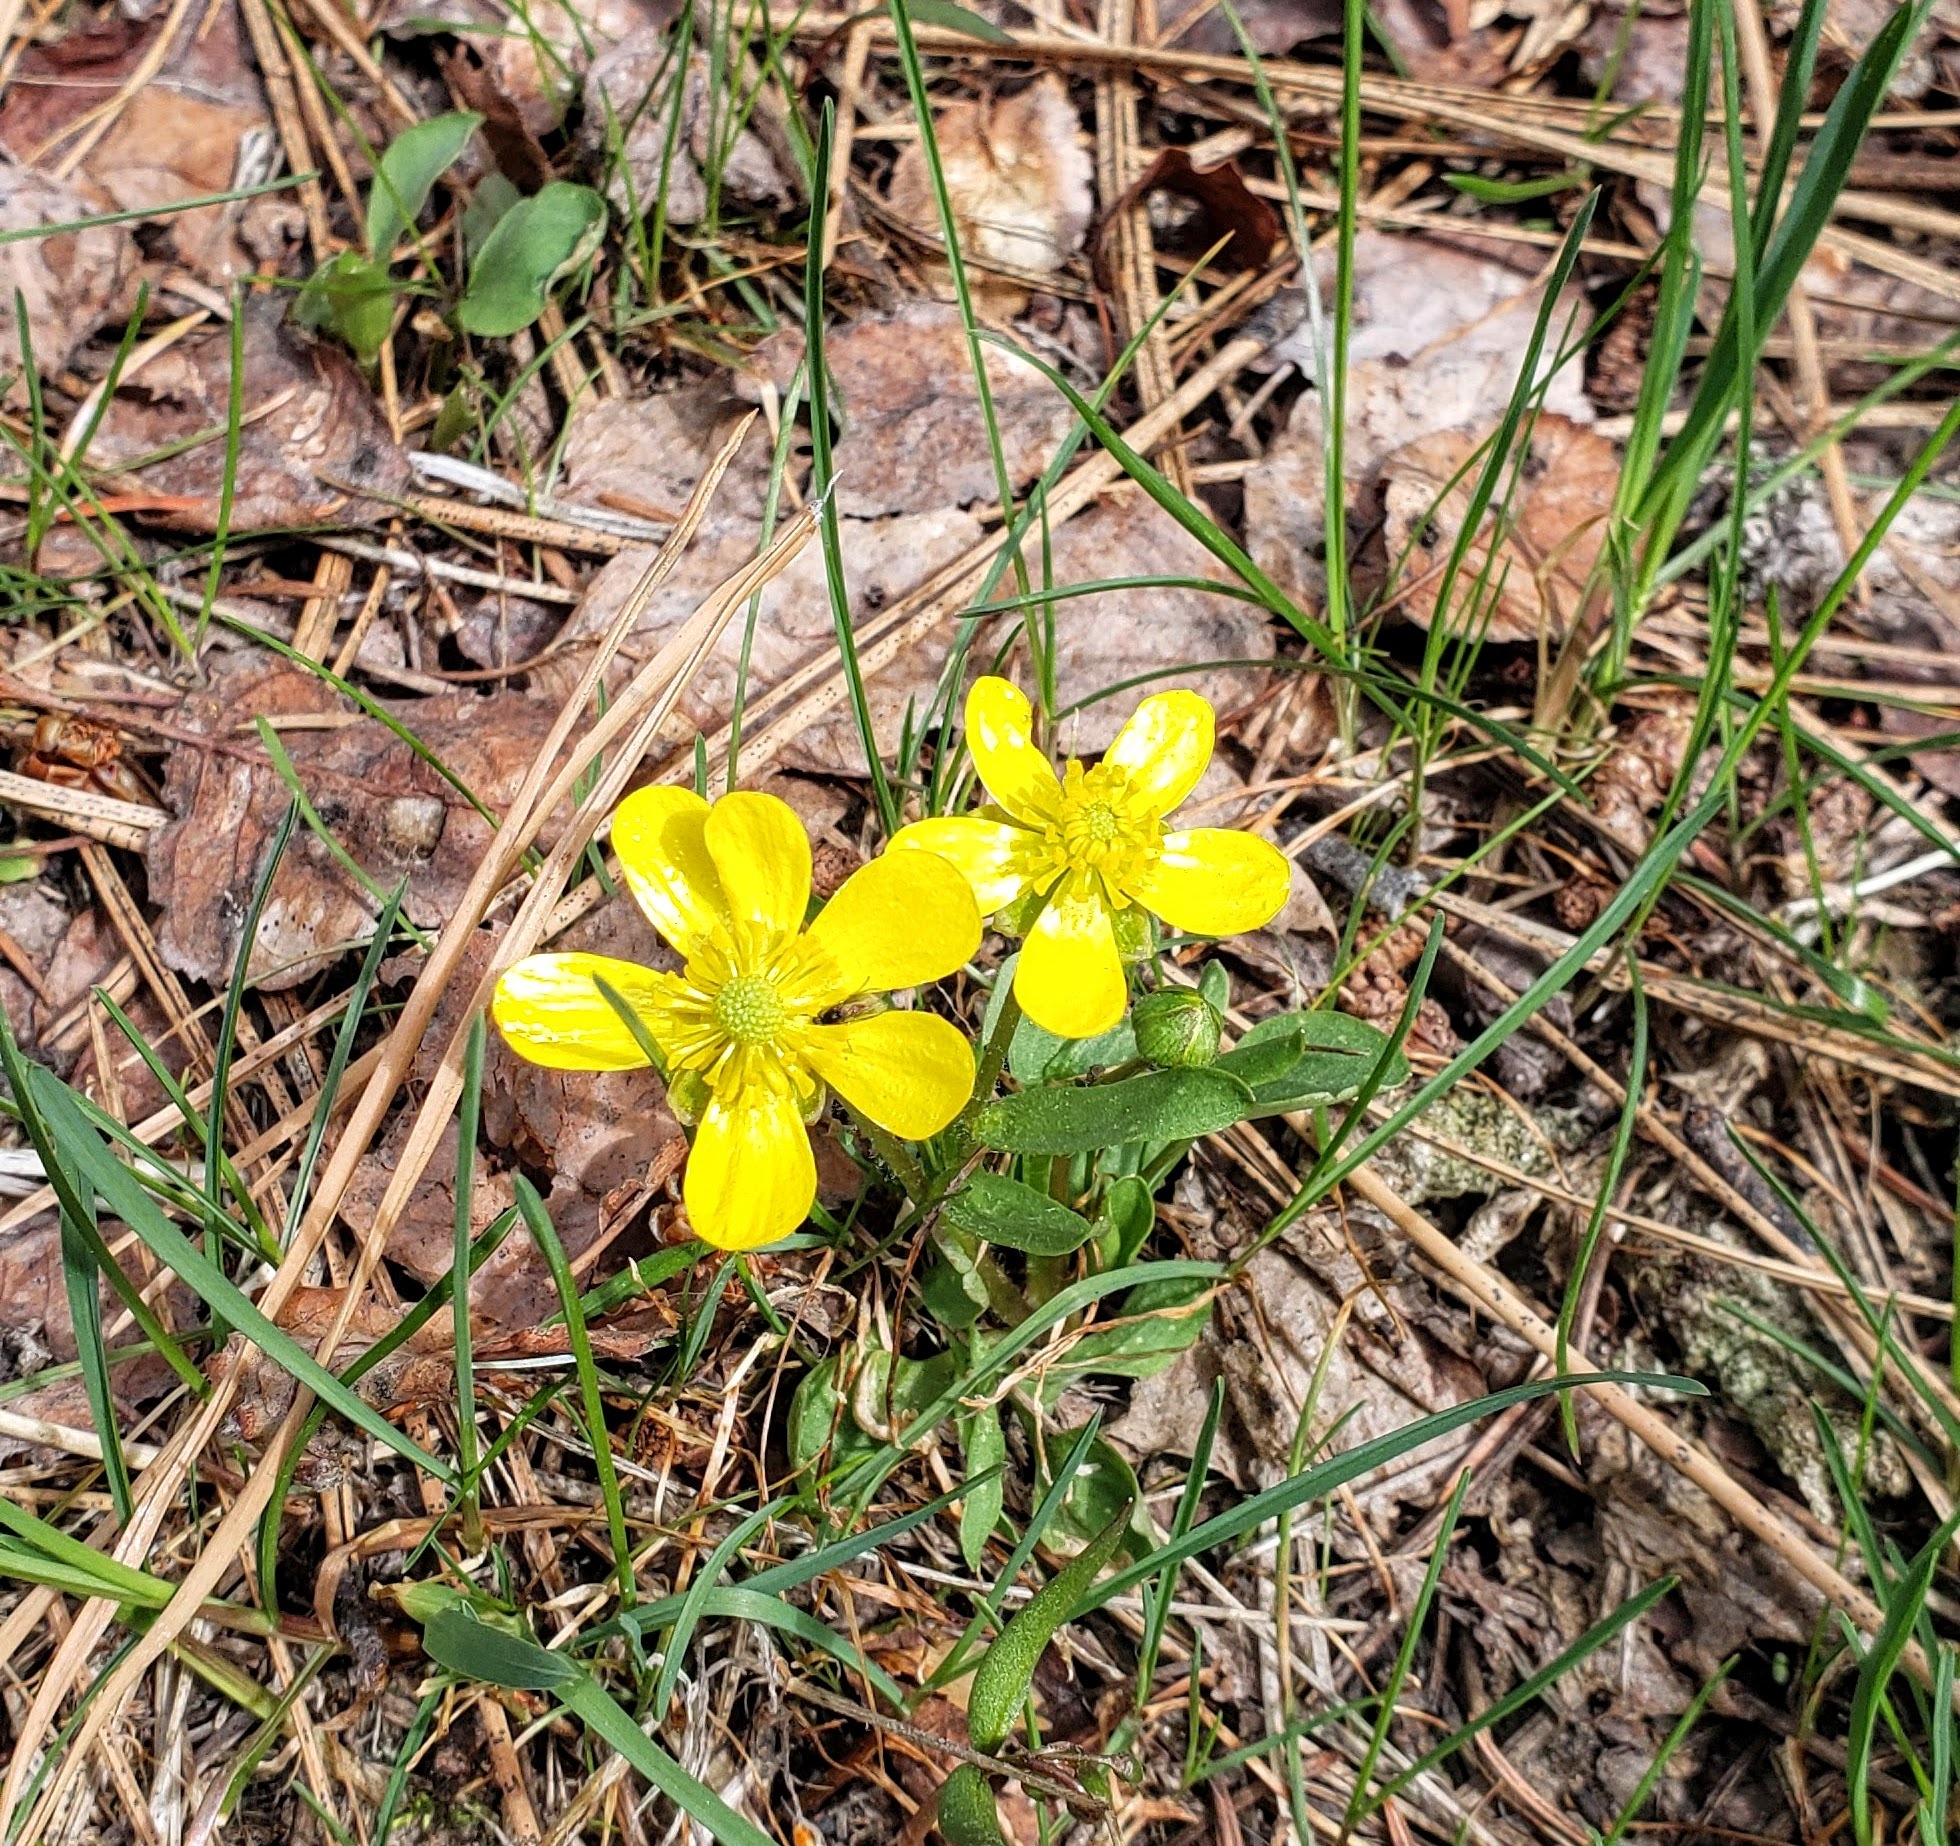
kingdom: Plantae
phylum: Tracheophyta
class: Magnoliopsida
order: Ranunculales
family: Ranunculaceae
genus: Ranunculus
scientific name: Ranunculus glaberrimus
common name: Sagebrush buttercup
